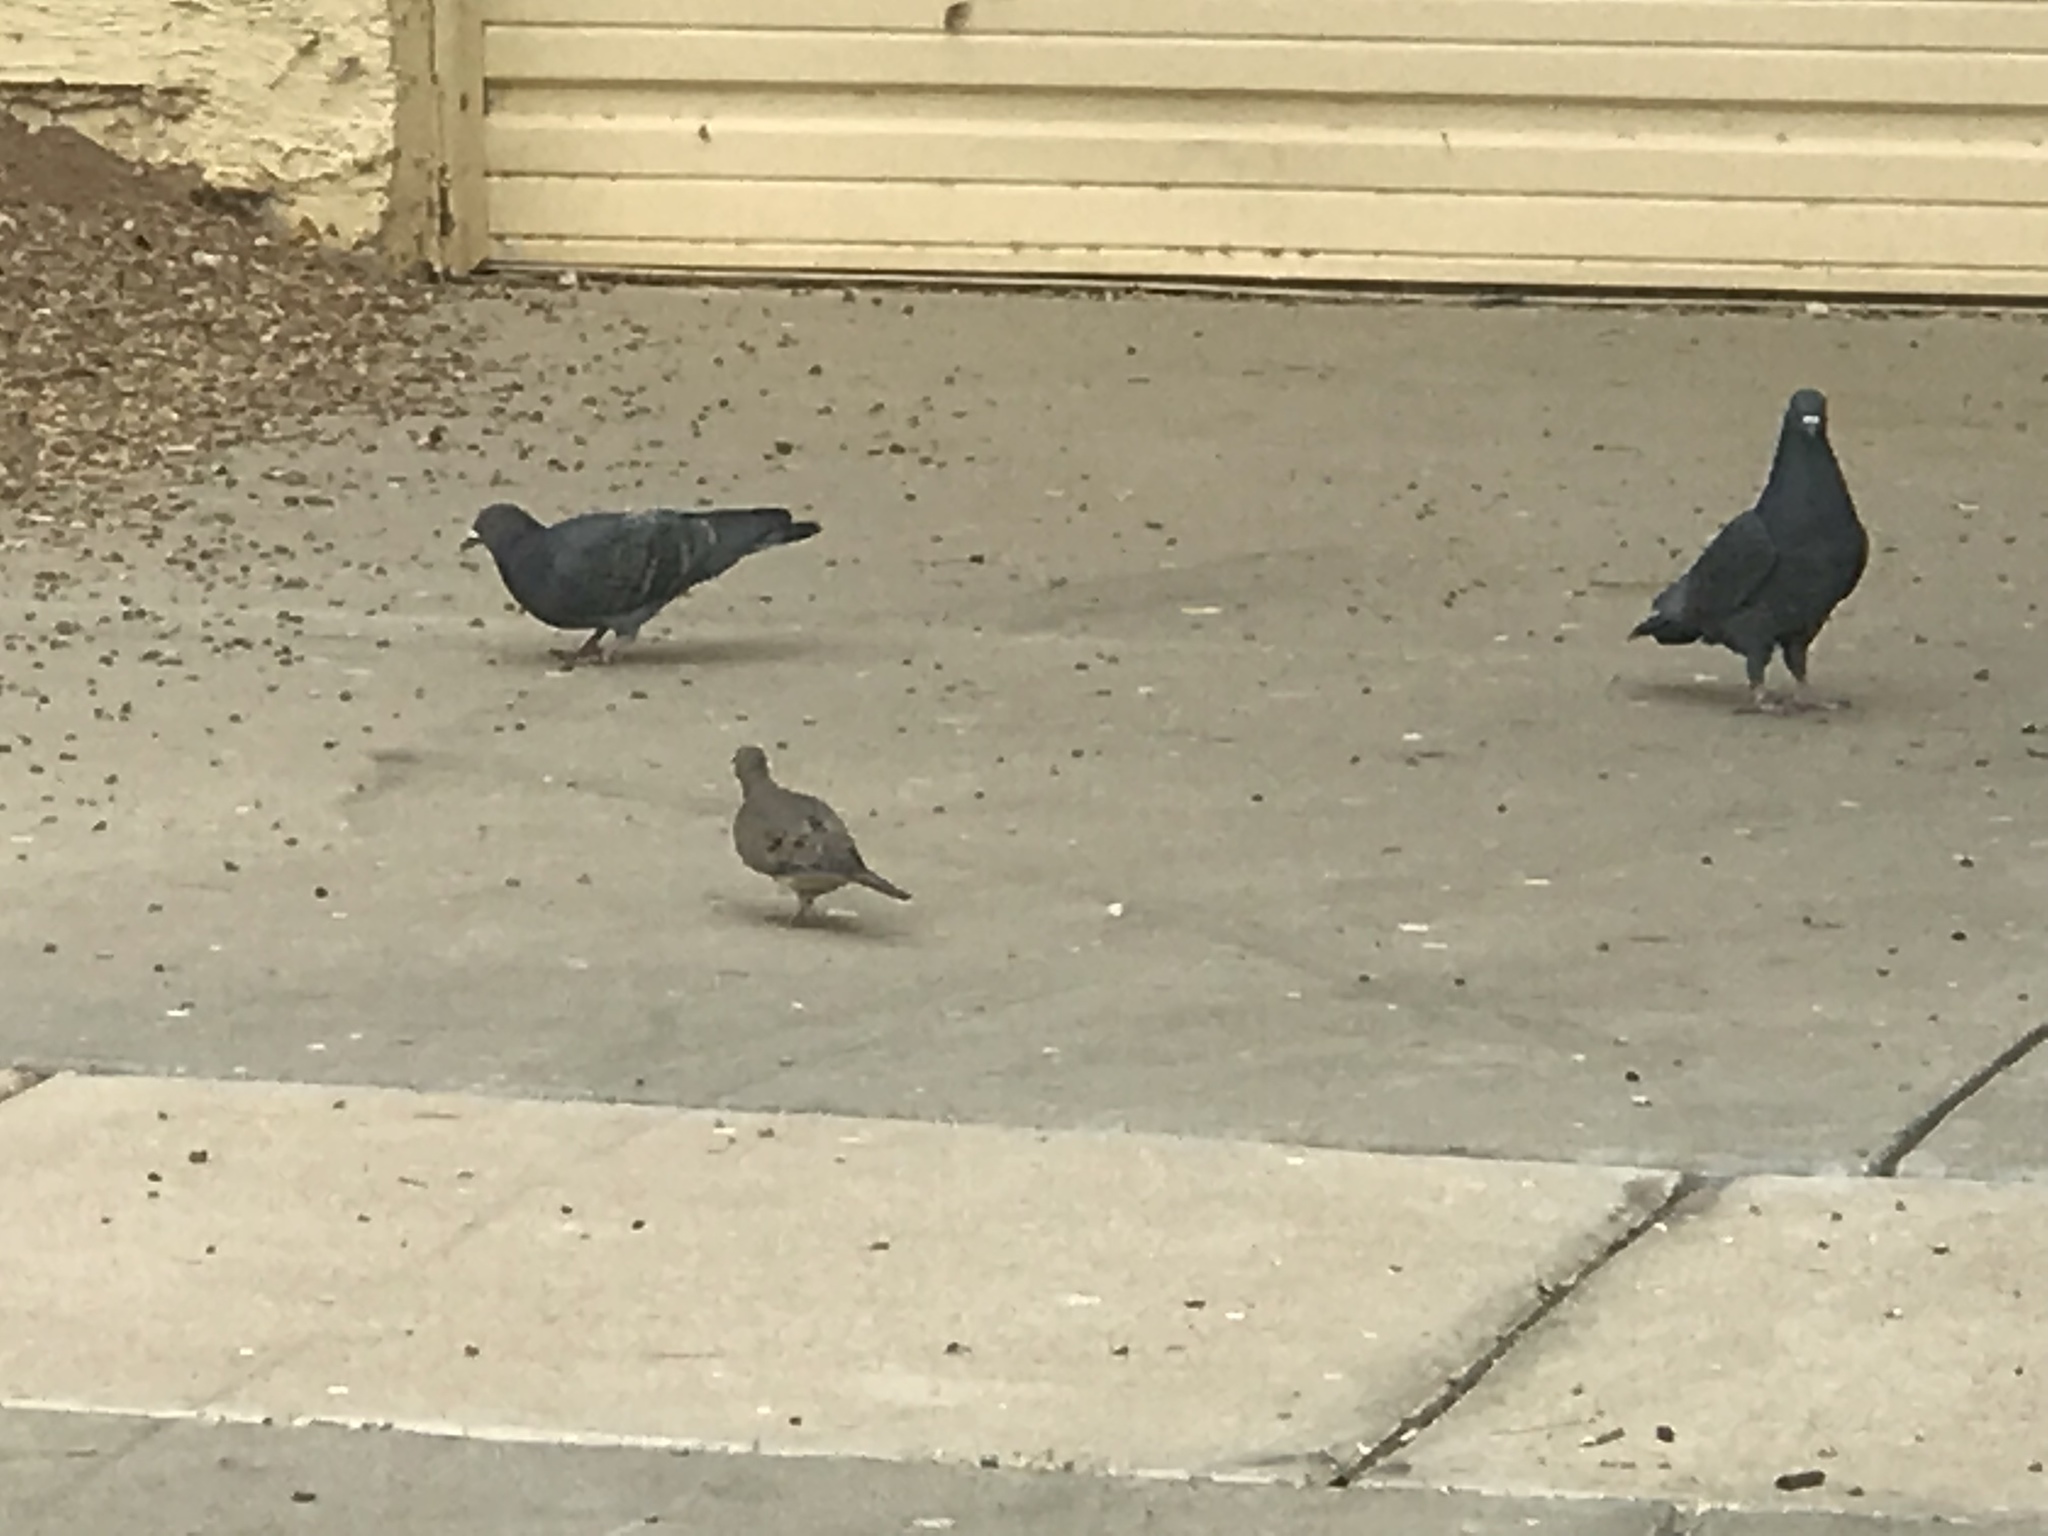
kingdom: Animalia
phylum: Chordata
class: Aves
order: Columbiformes
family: Columbidae
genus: Columba
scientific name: Columba livia
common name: Rock pigeon
